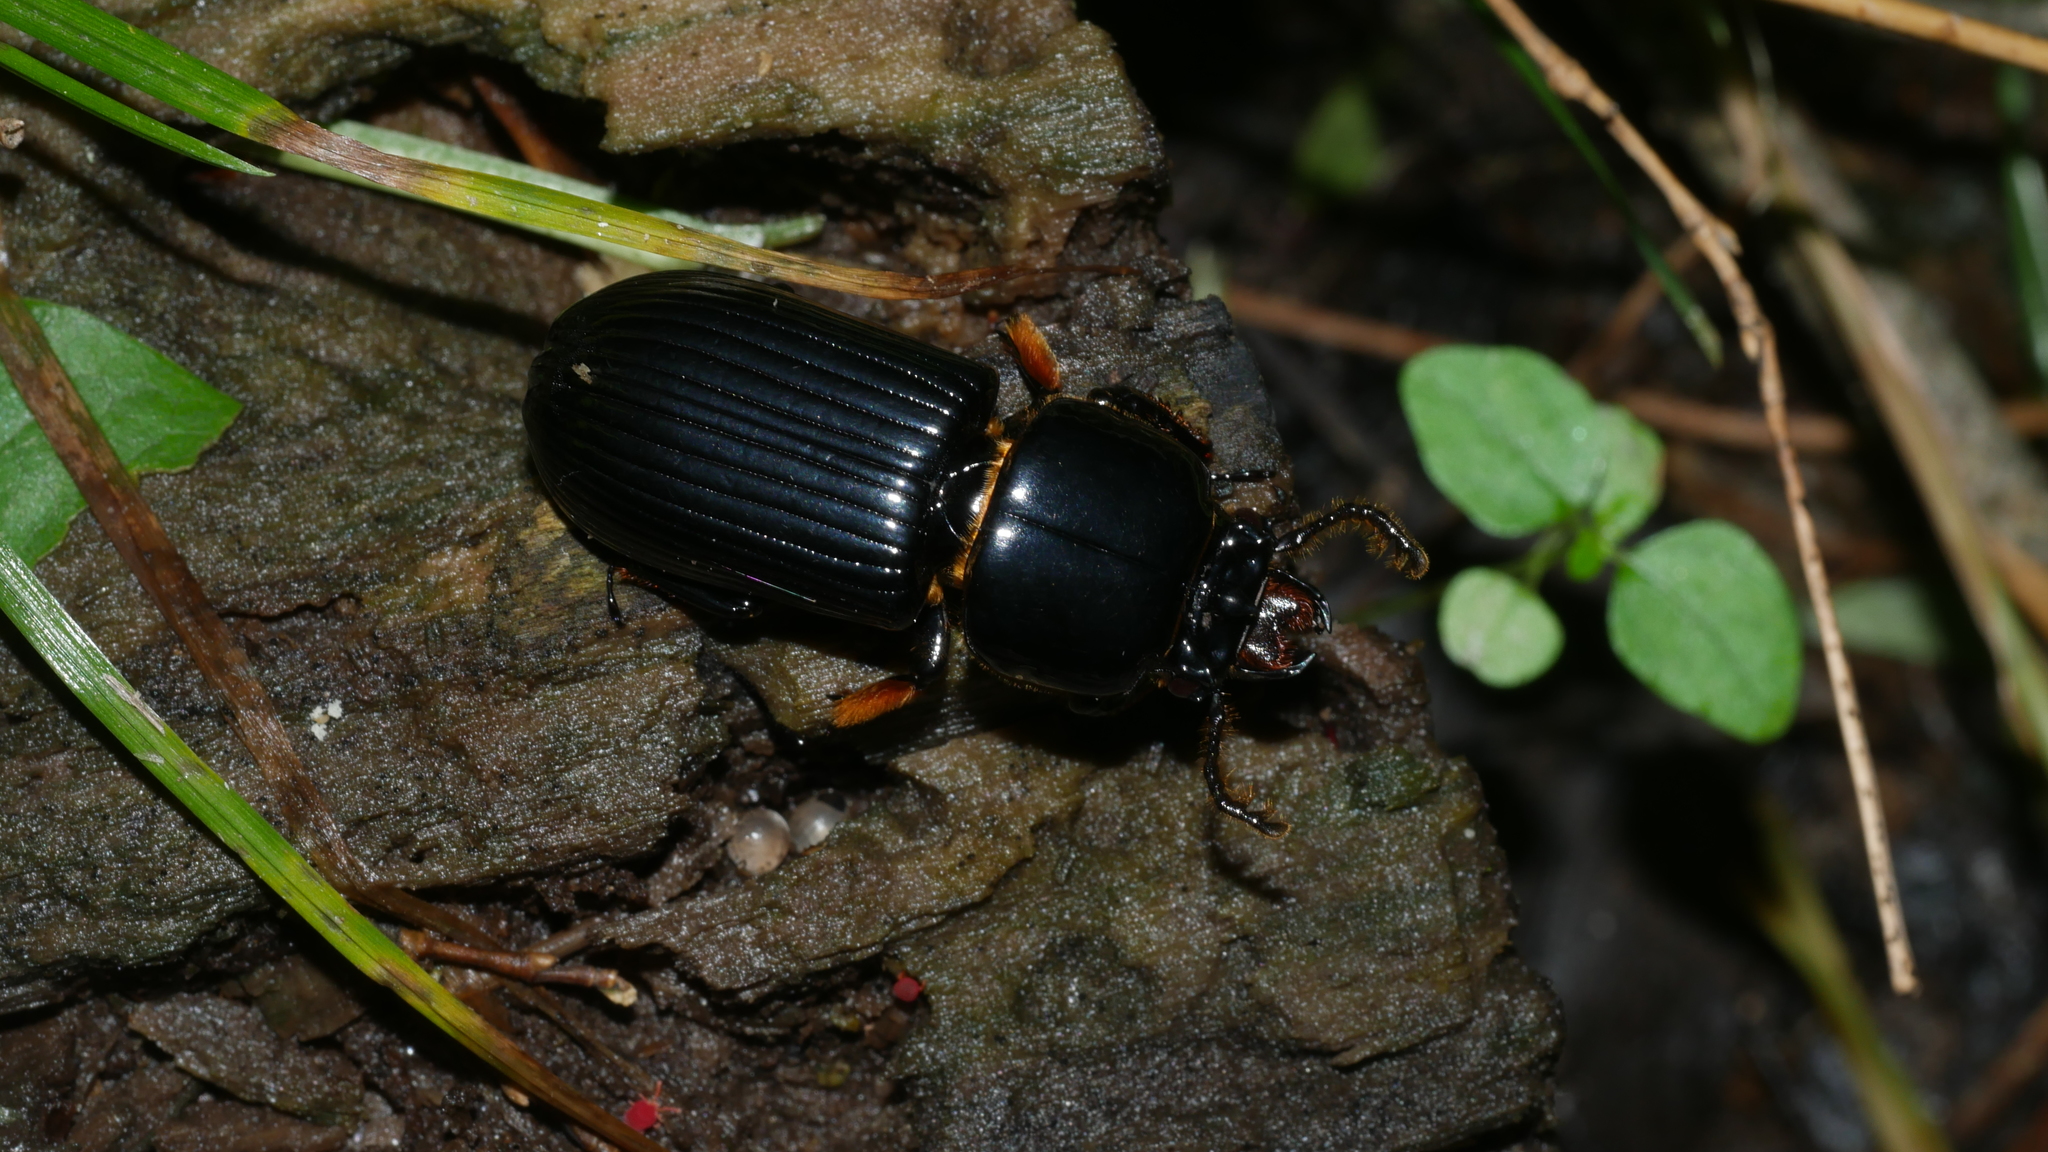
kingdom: Animalia
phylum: Arthropoda
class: Insecta
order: Coleoptera
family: Passalidae
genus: Odontotaenius
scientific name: Odontotaenius disjunctus
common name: Patent leather beetle
